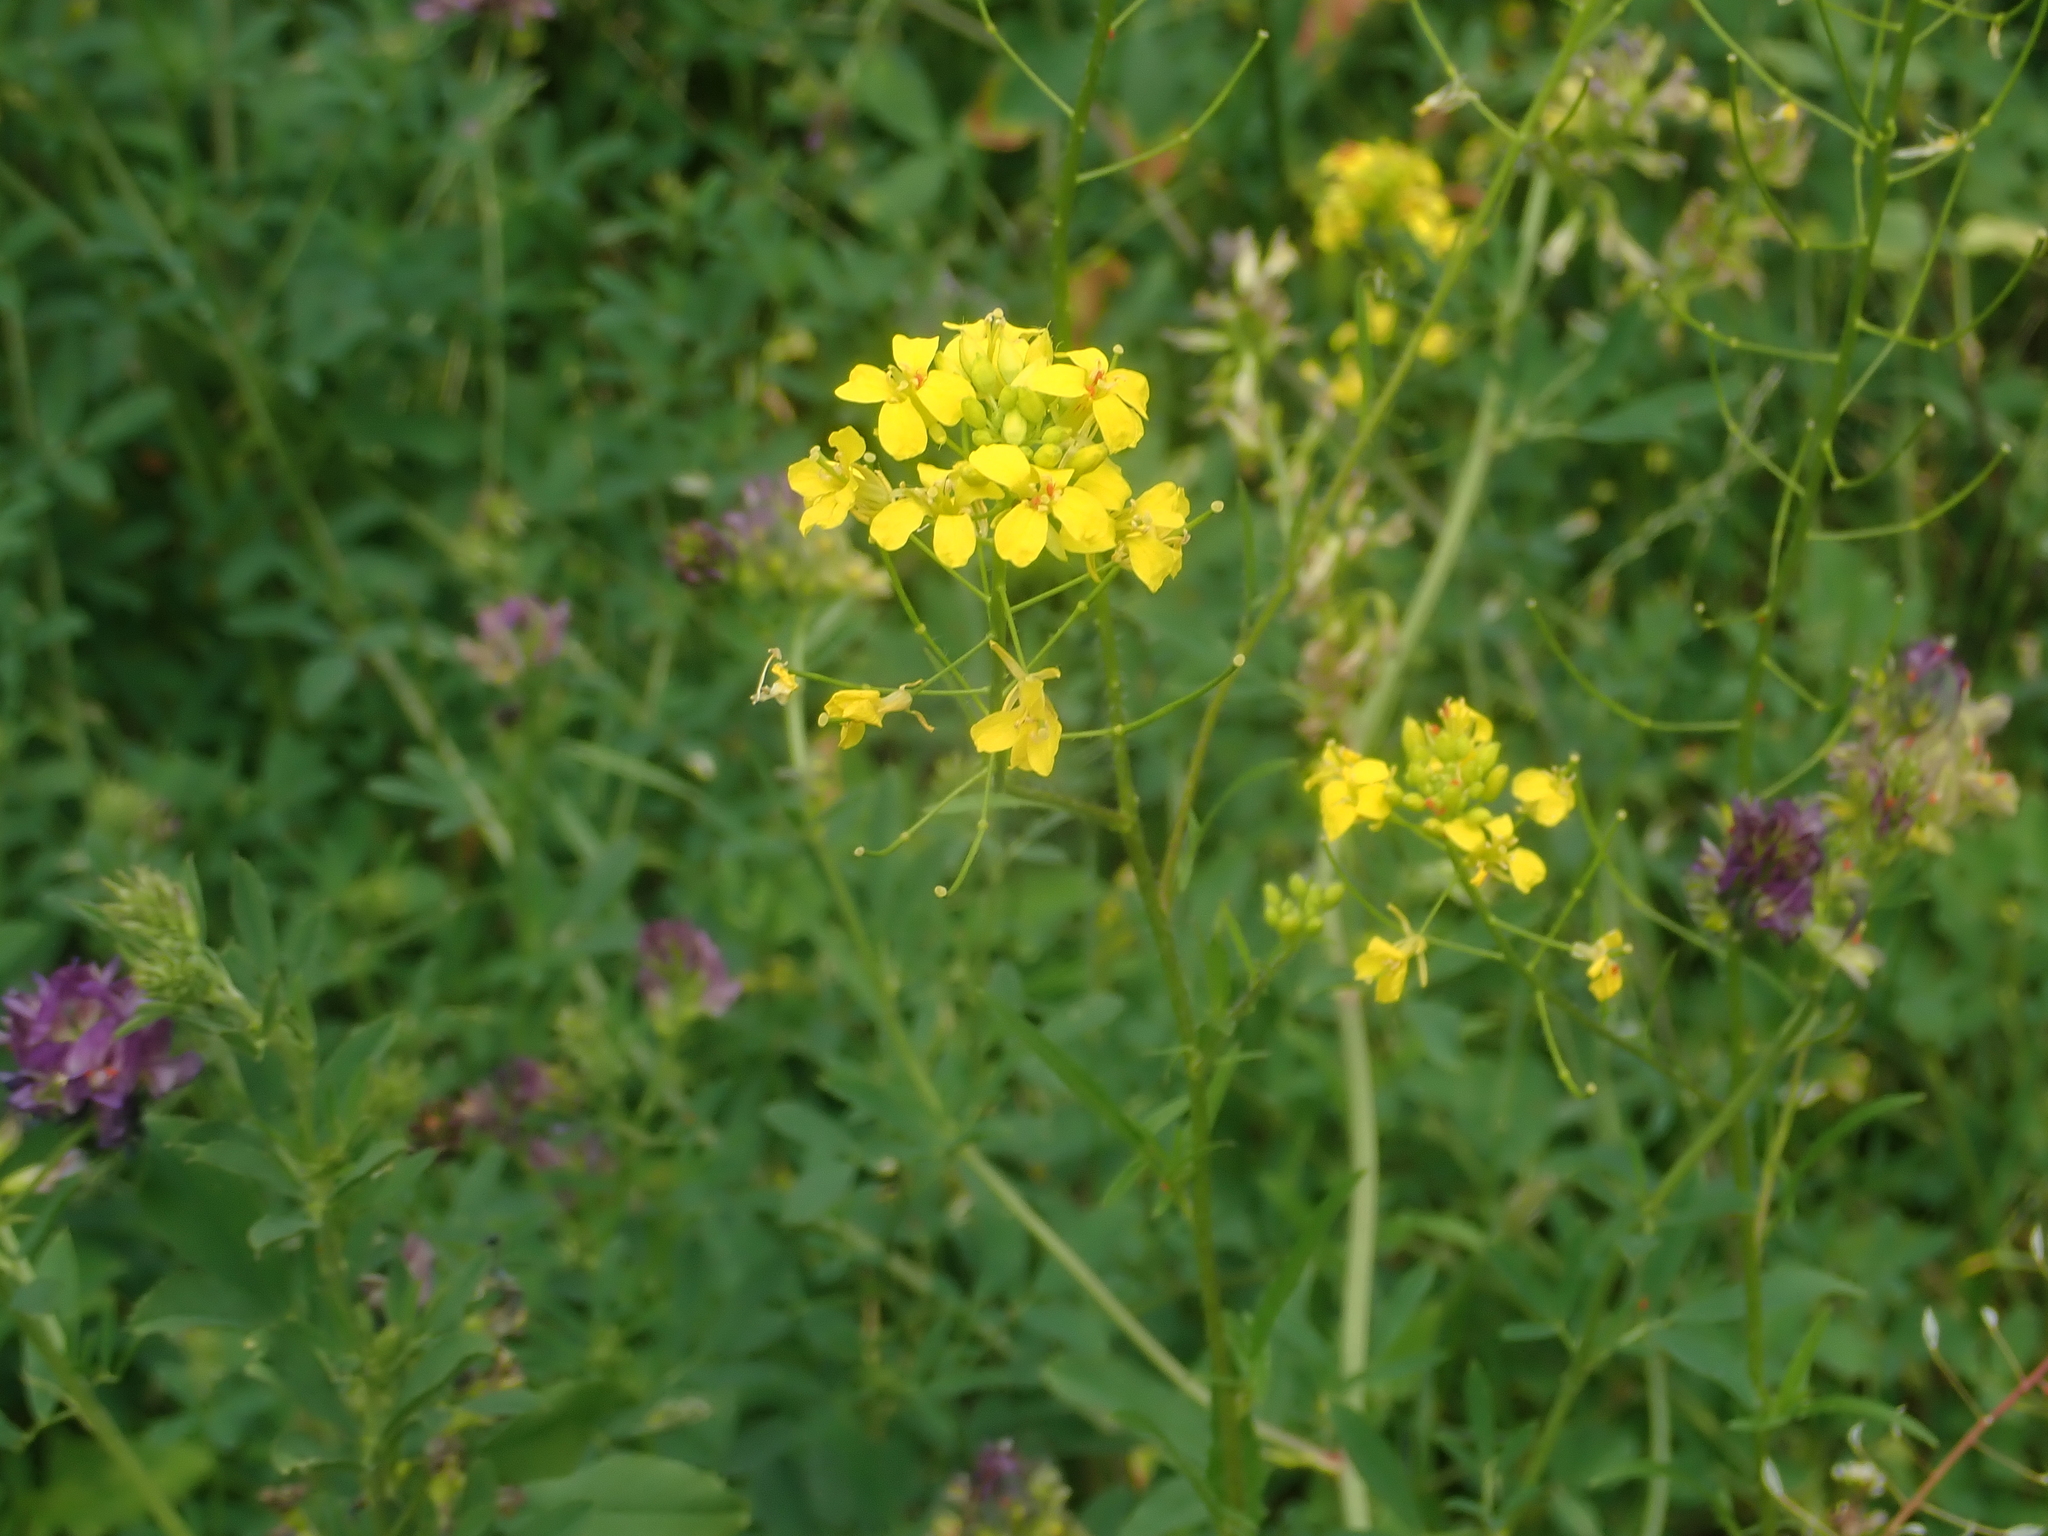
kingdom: Plantae
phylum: Tracheophyta
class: Magnoliopsida
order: Brassicales
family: Brassicaceae
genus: Sisymbrium
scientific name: Sisymbrium loeselii
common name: False london-rocket
